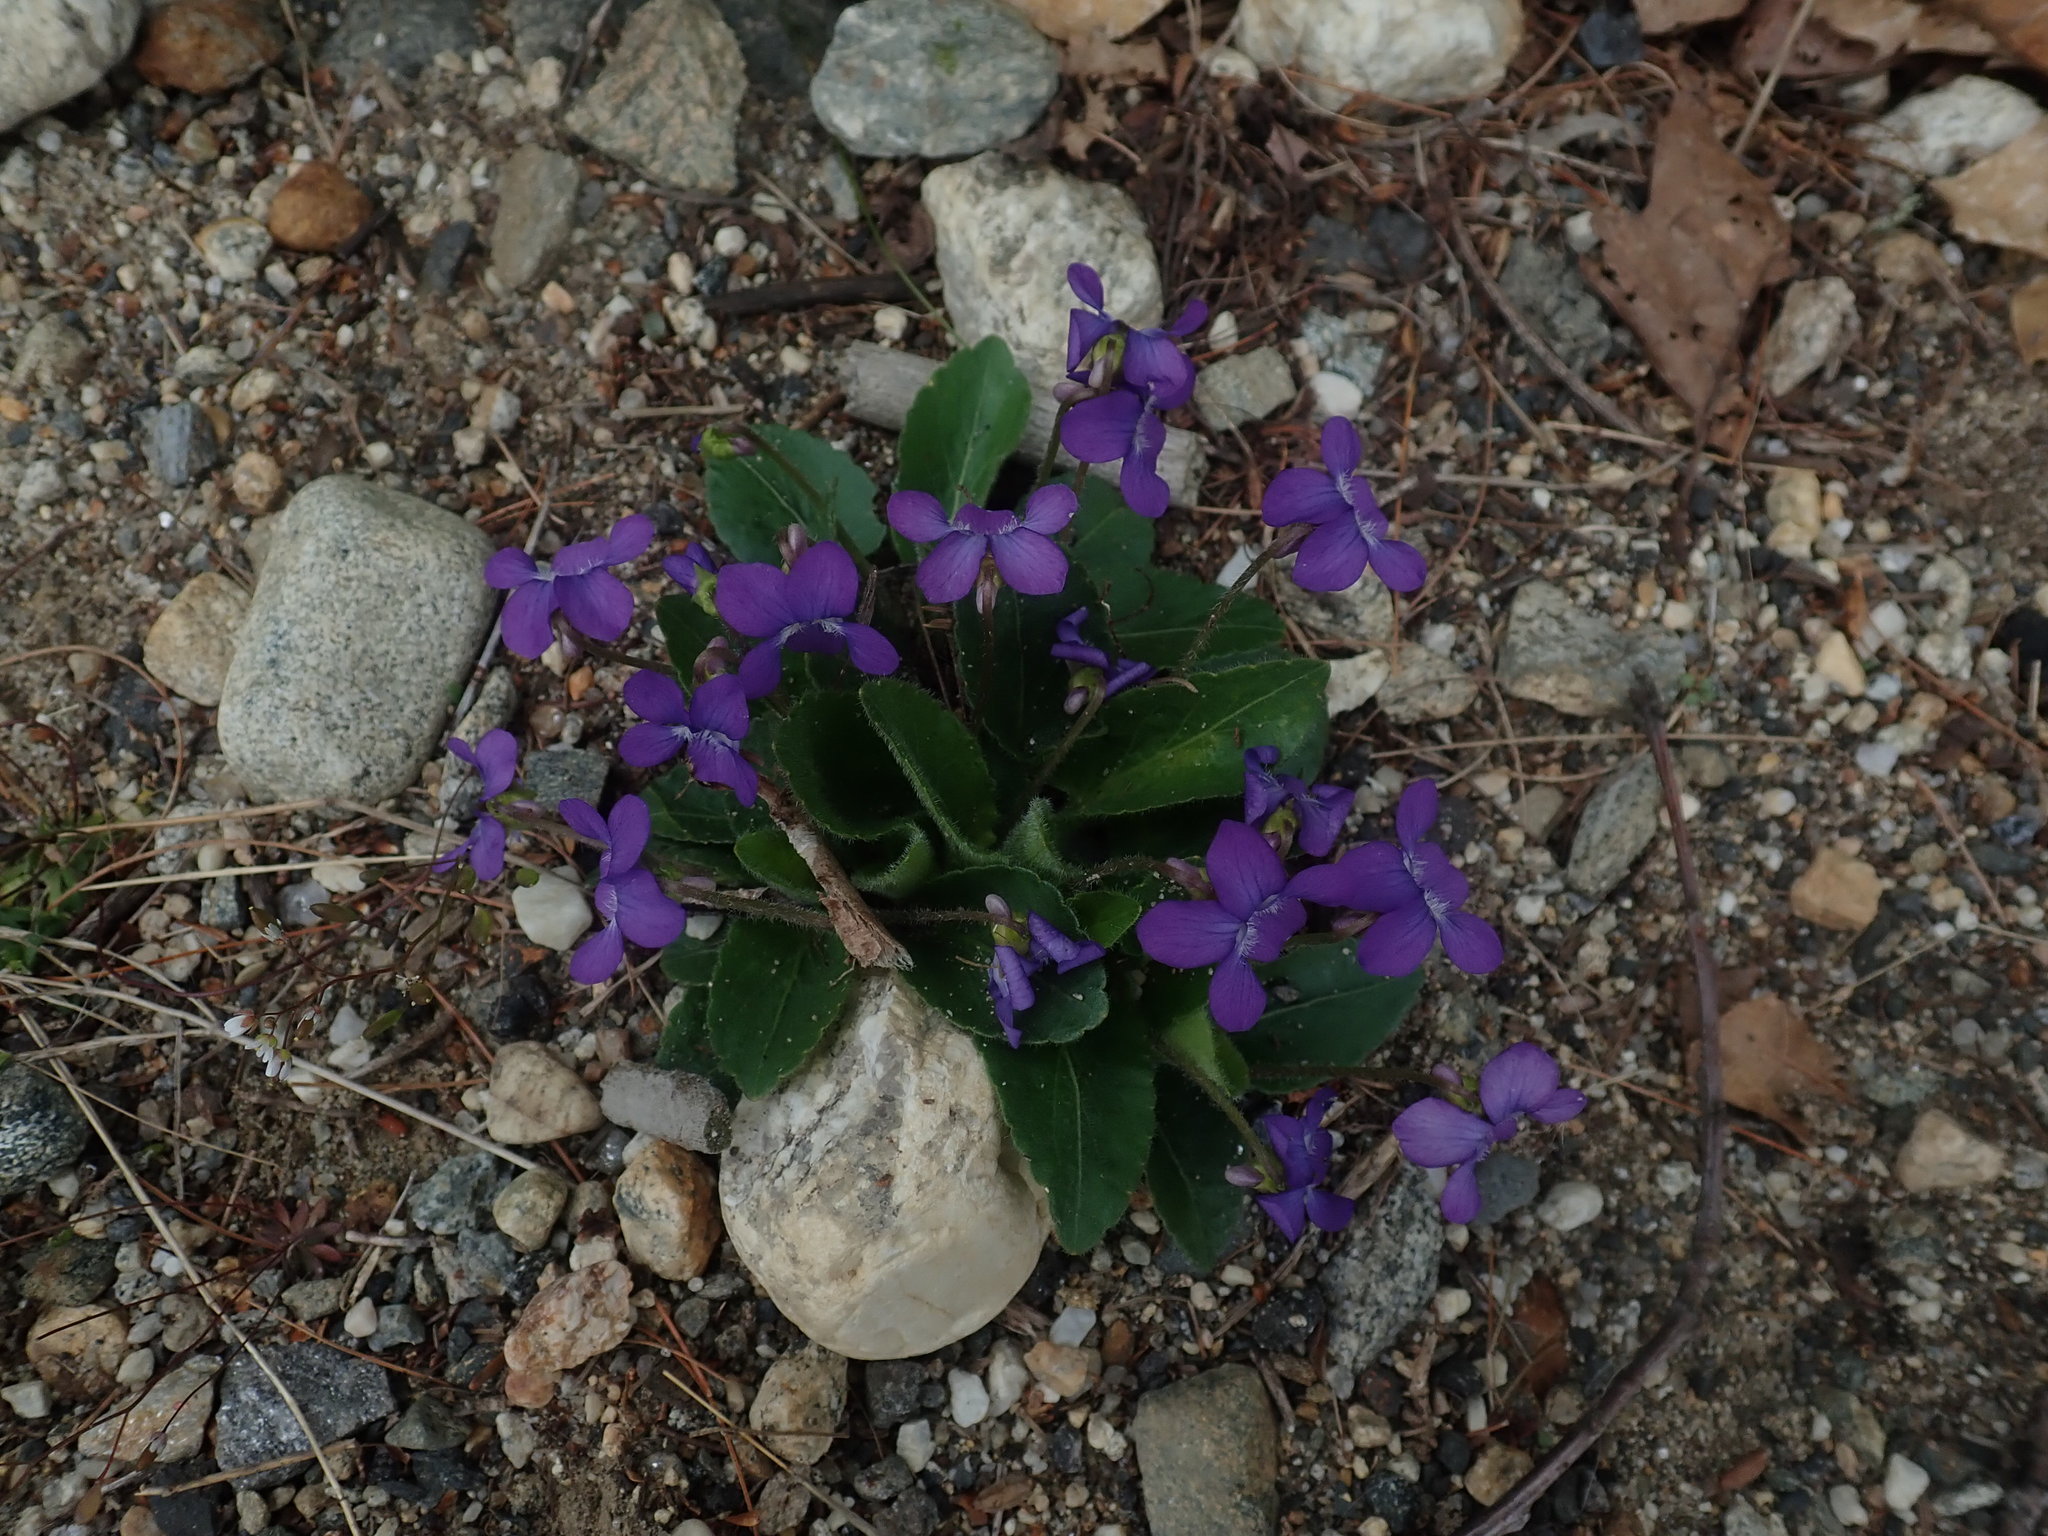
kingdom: Plantae
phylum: Tracheophyta
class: Magnoliopsida
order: Malpighiales
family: Violaceae
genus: Viola
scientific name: Viola sagittata
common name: Arrowhead violet
